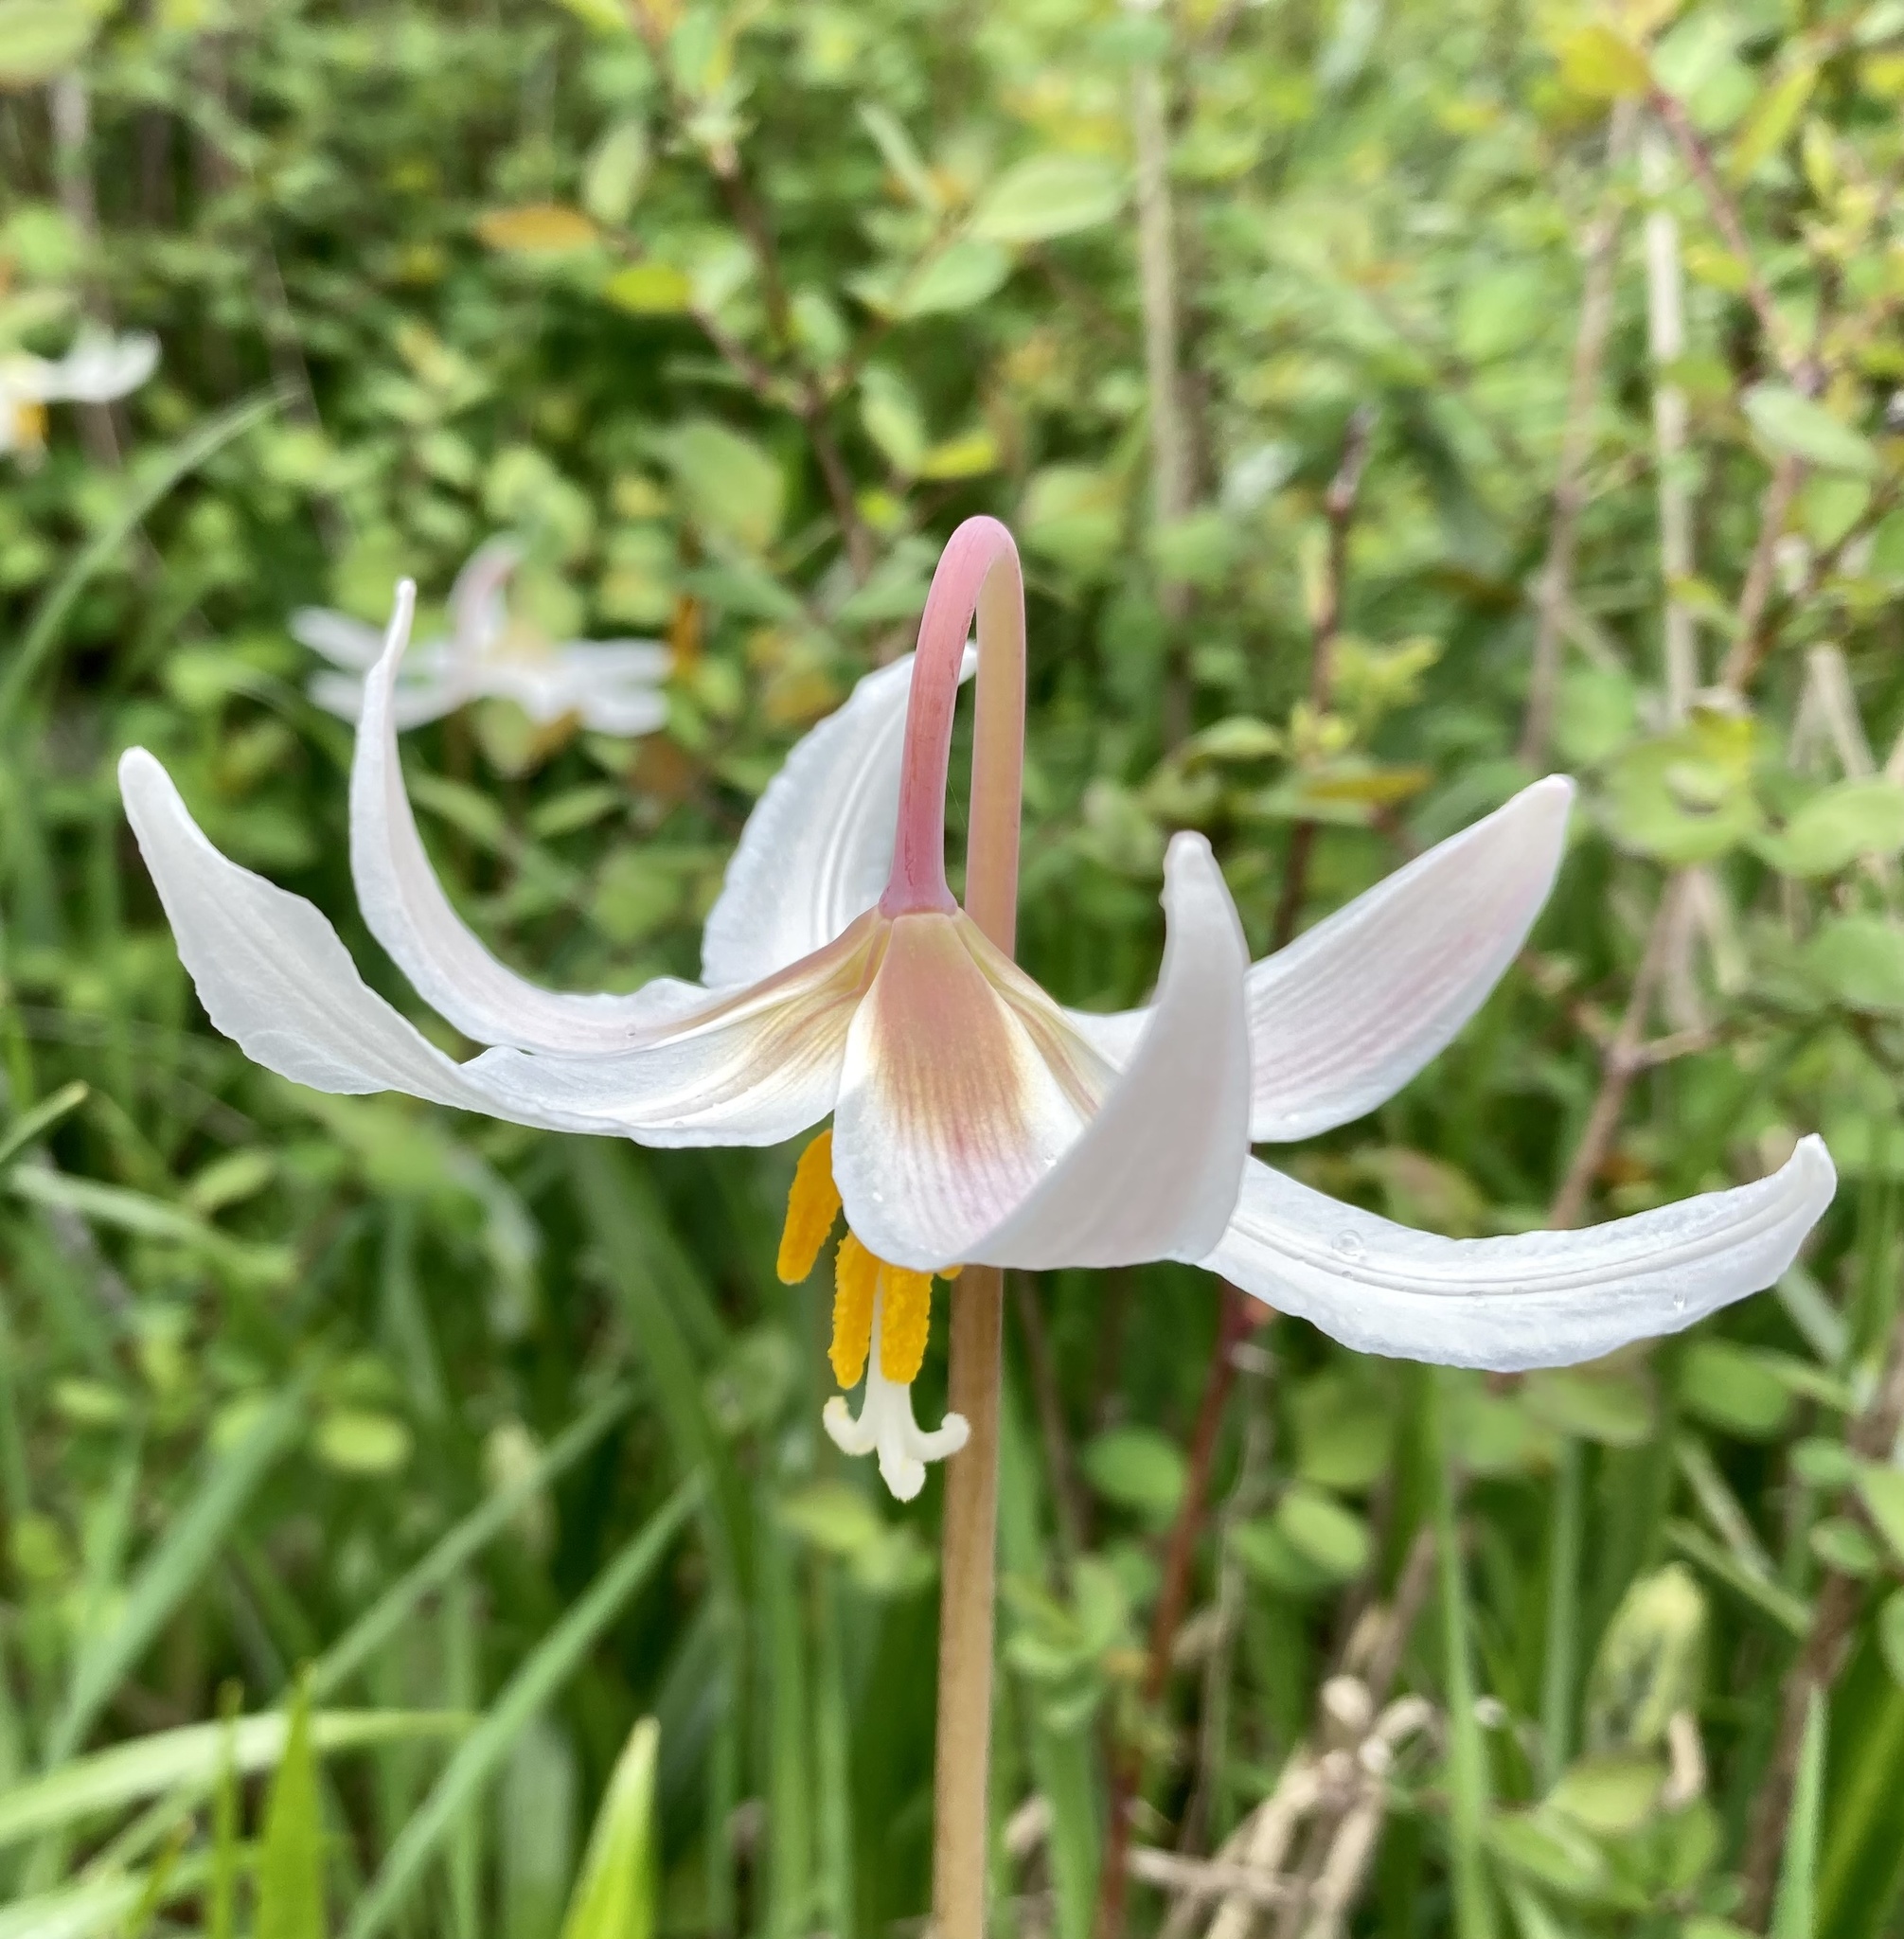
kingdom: Plantae
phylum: Tracheophyta
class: Liliopsida
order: Liliales
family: Liliaceae
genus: Erythronium
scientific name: Erythronium oregonum
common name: Giant adder's-tongue
